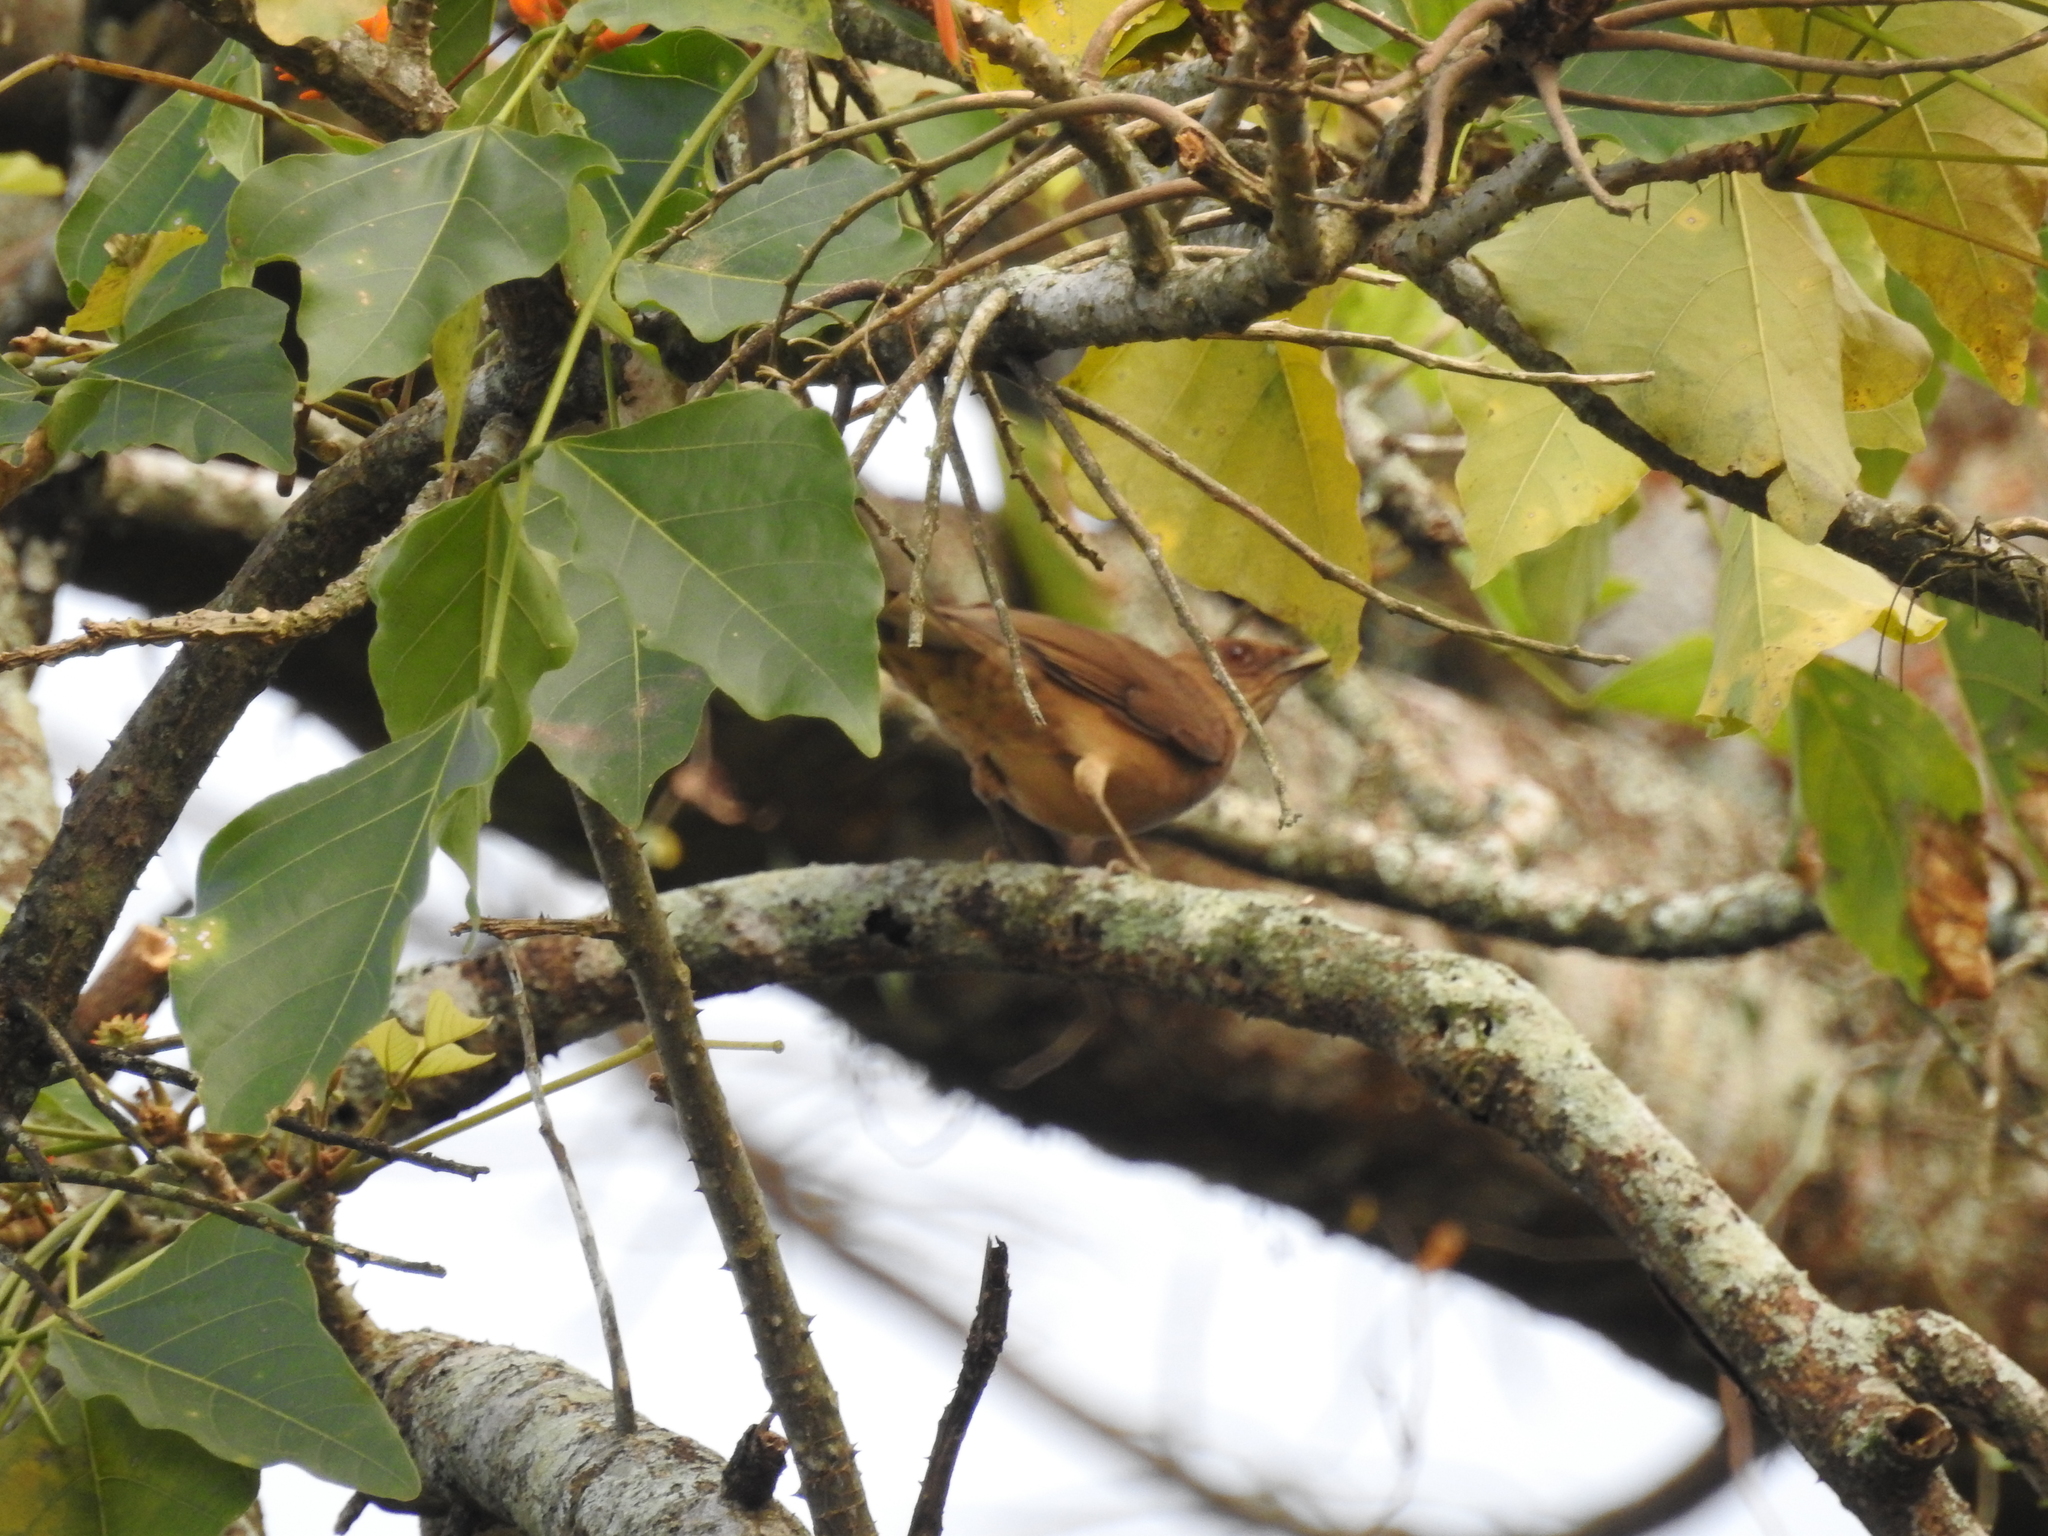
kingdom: Animalia
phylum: Chordata
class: Aves
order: Passeriformes
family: Turdidae
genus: Turdus
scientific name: Turdus grayi
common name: Clay-colored thrush
